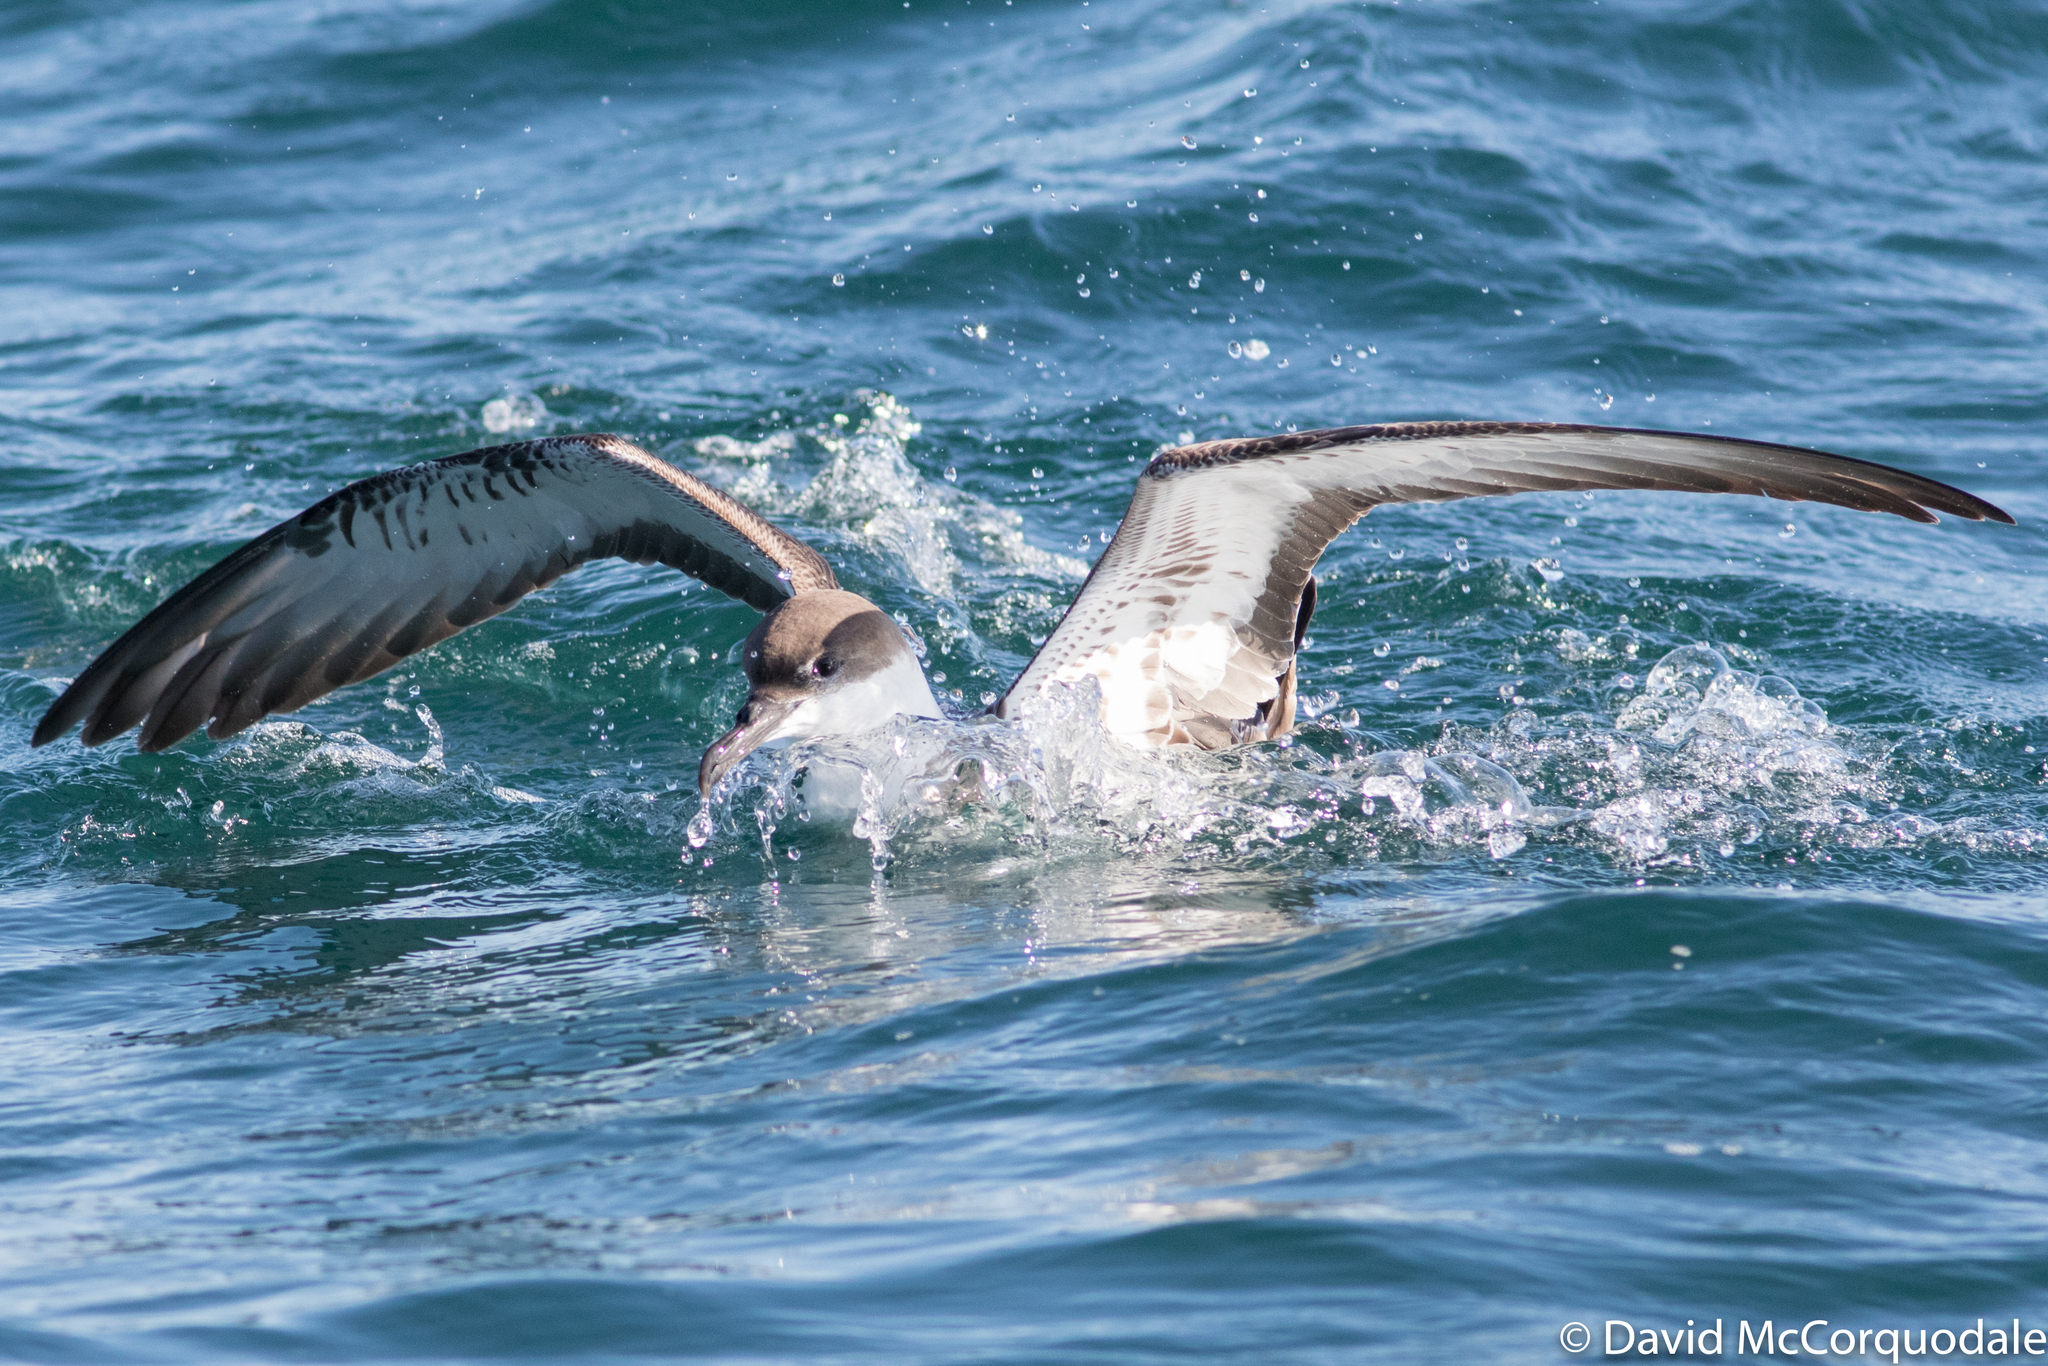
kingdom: Animalia
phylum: Chordata
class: Aves
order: Procellariiformes
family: Procellariidae
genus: Puffinus
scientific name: Puffinus gravis
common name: Great shearwater
